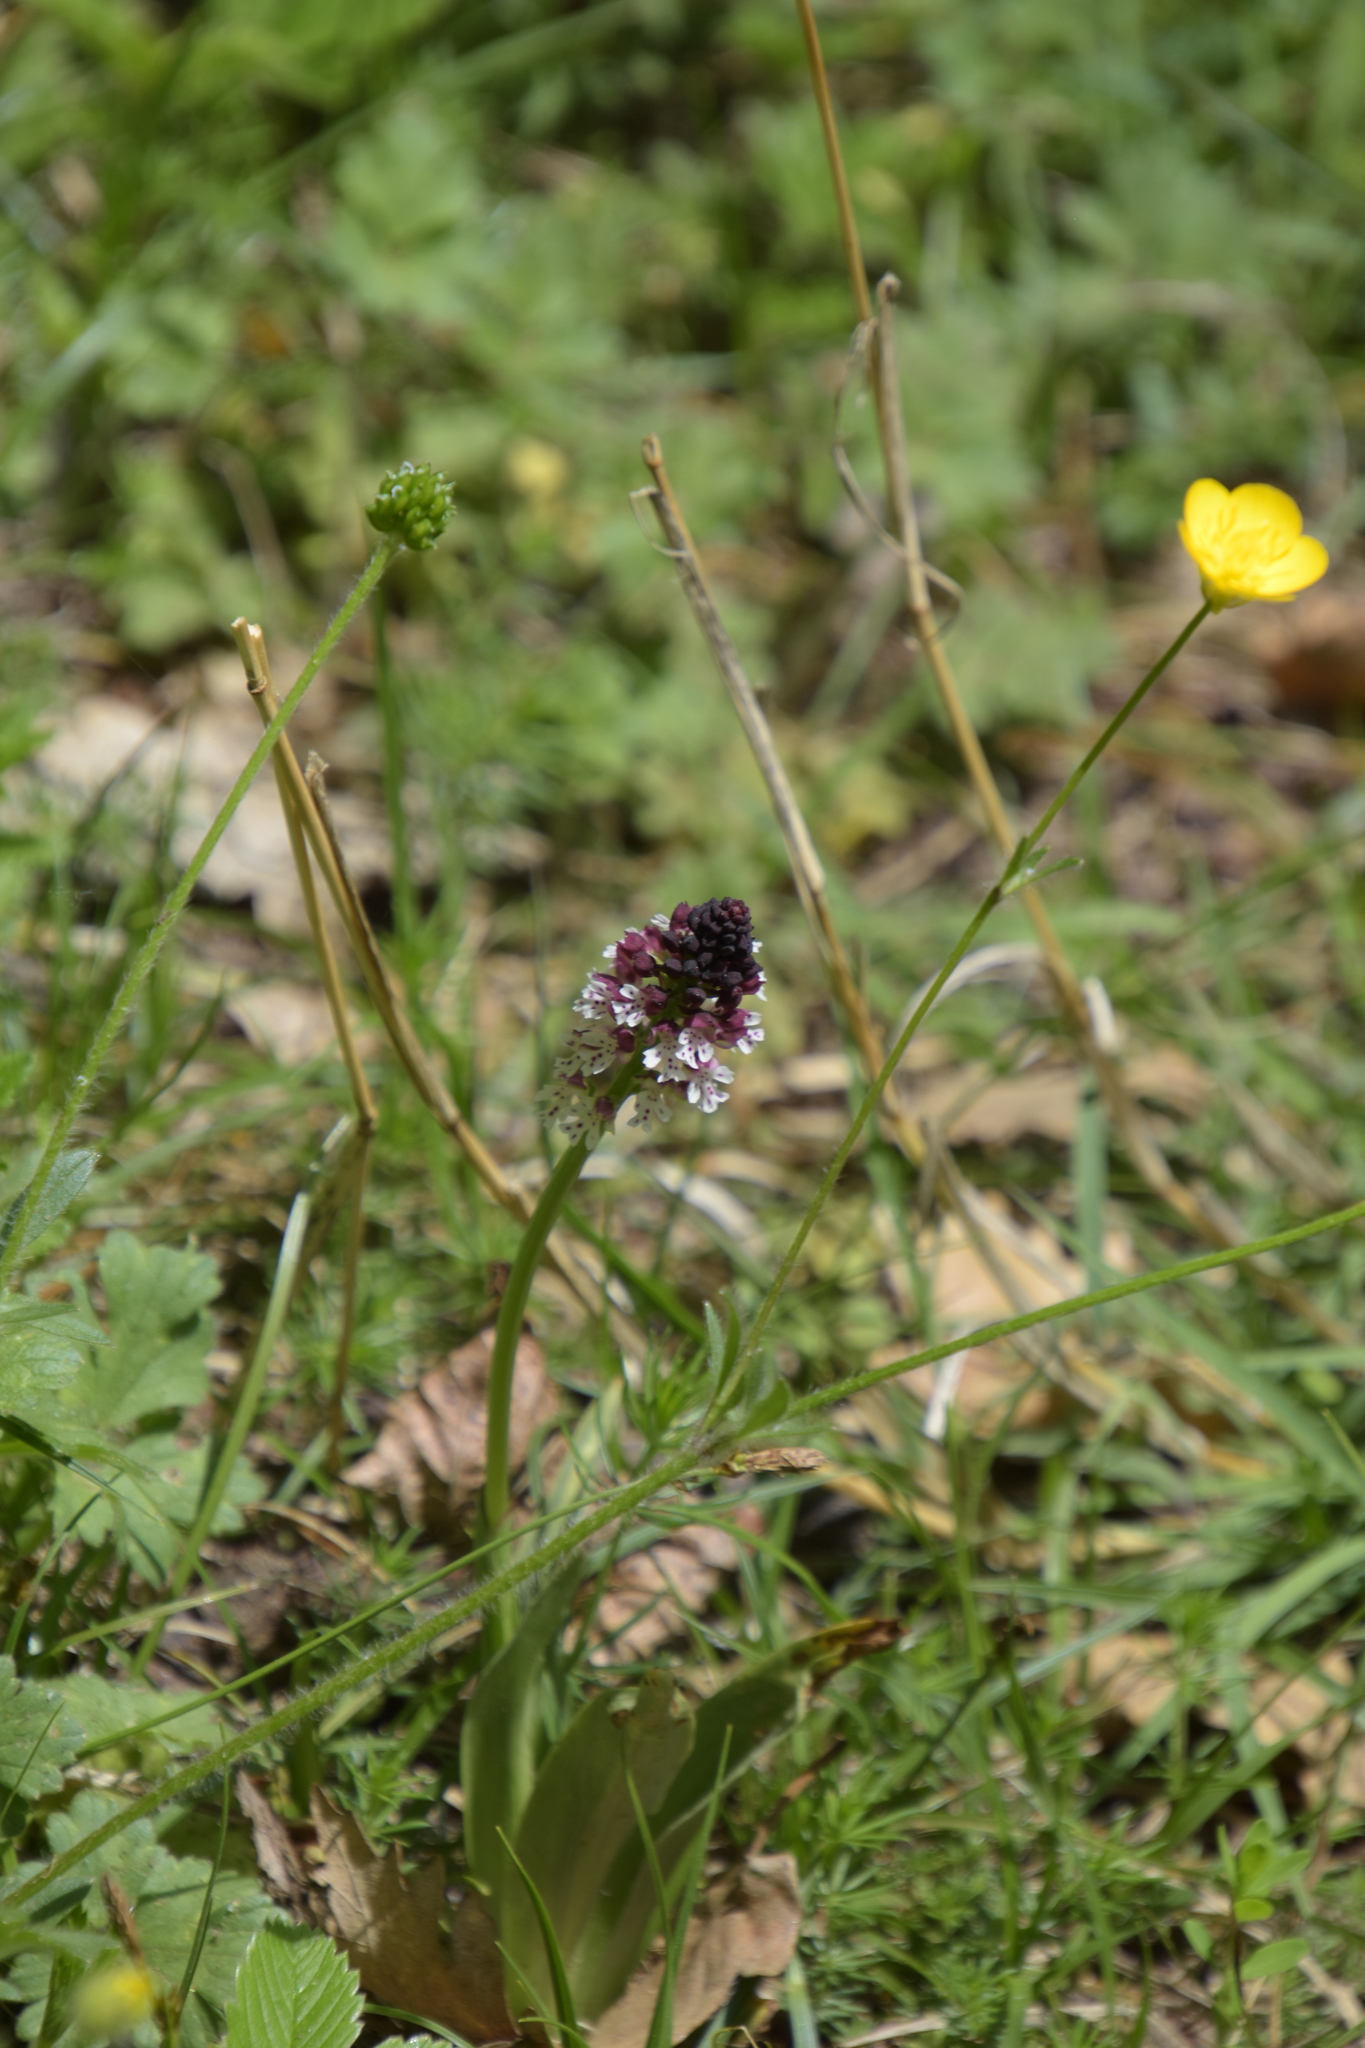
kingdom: Plantae
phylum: Tracheophyta
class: Liliopsida
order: Asparagales
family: Orchidaceae
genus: Neotinea
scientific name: Neotinea ustulata
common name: Burnt orchid
